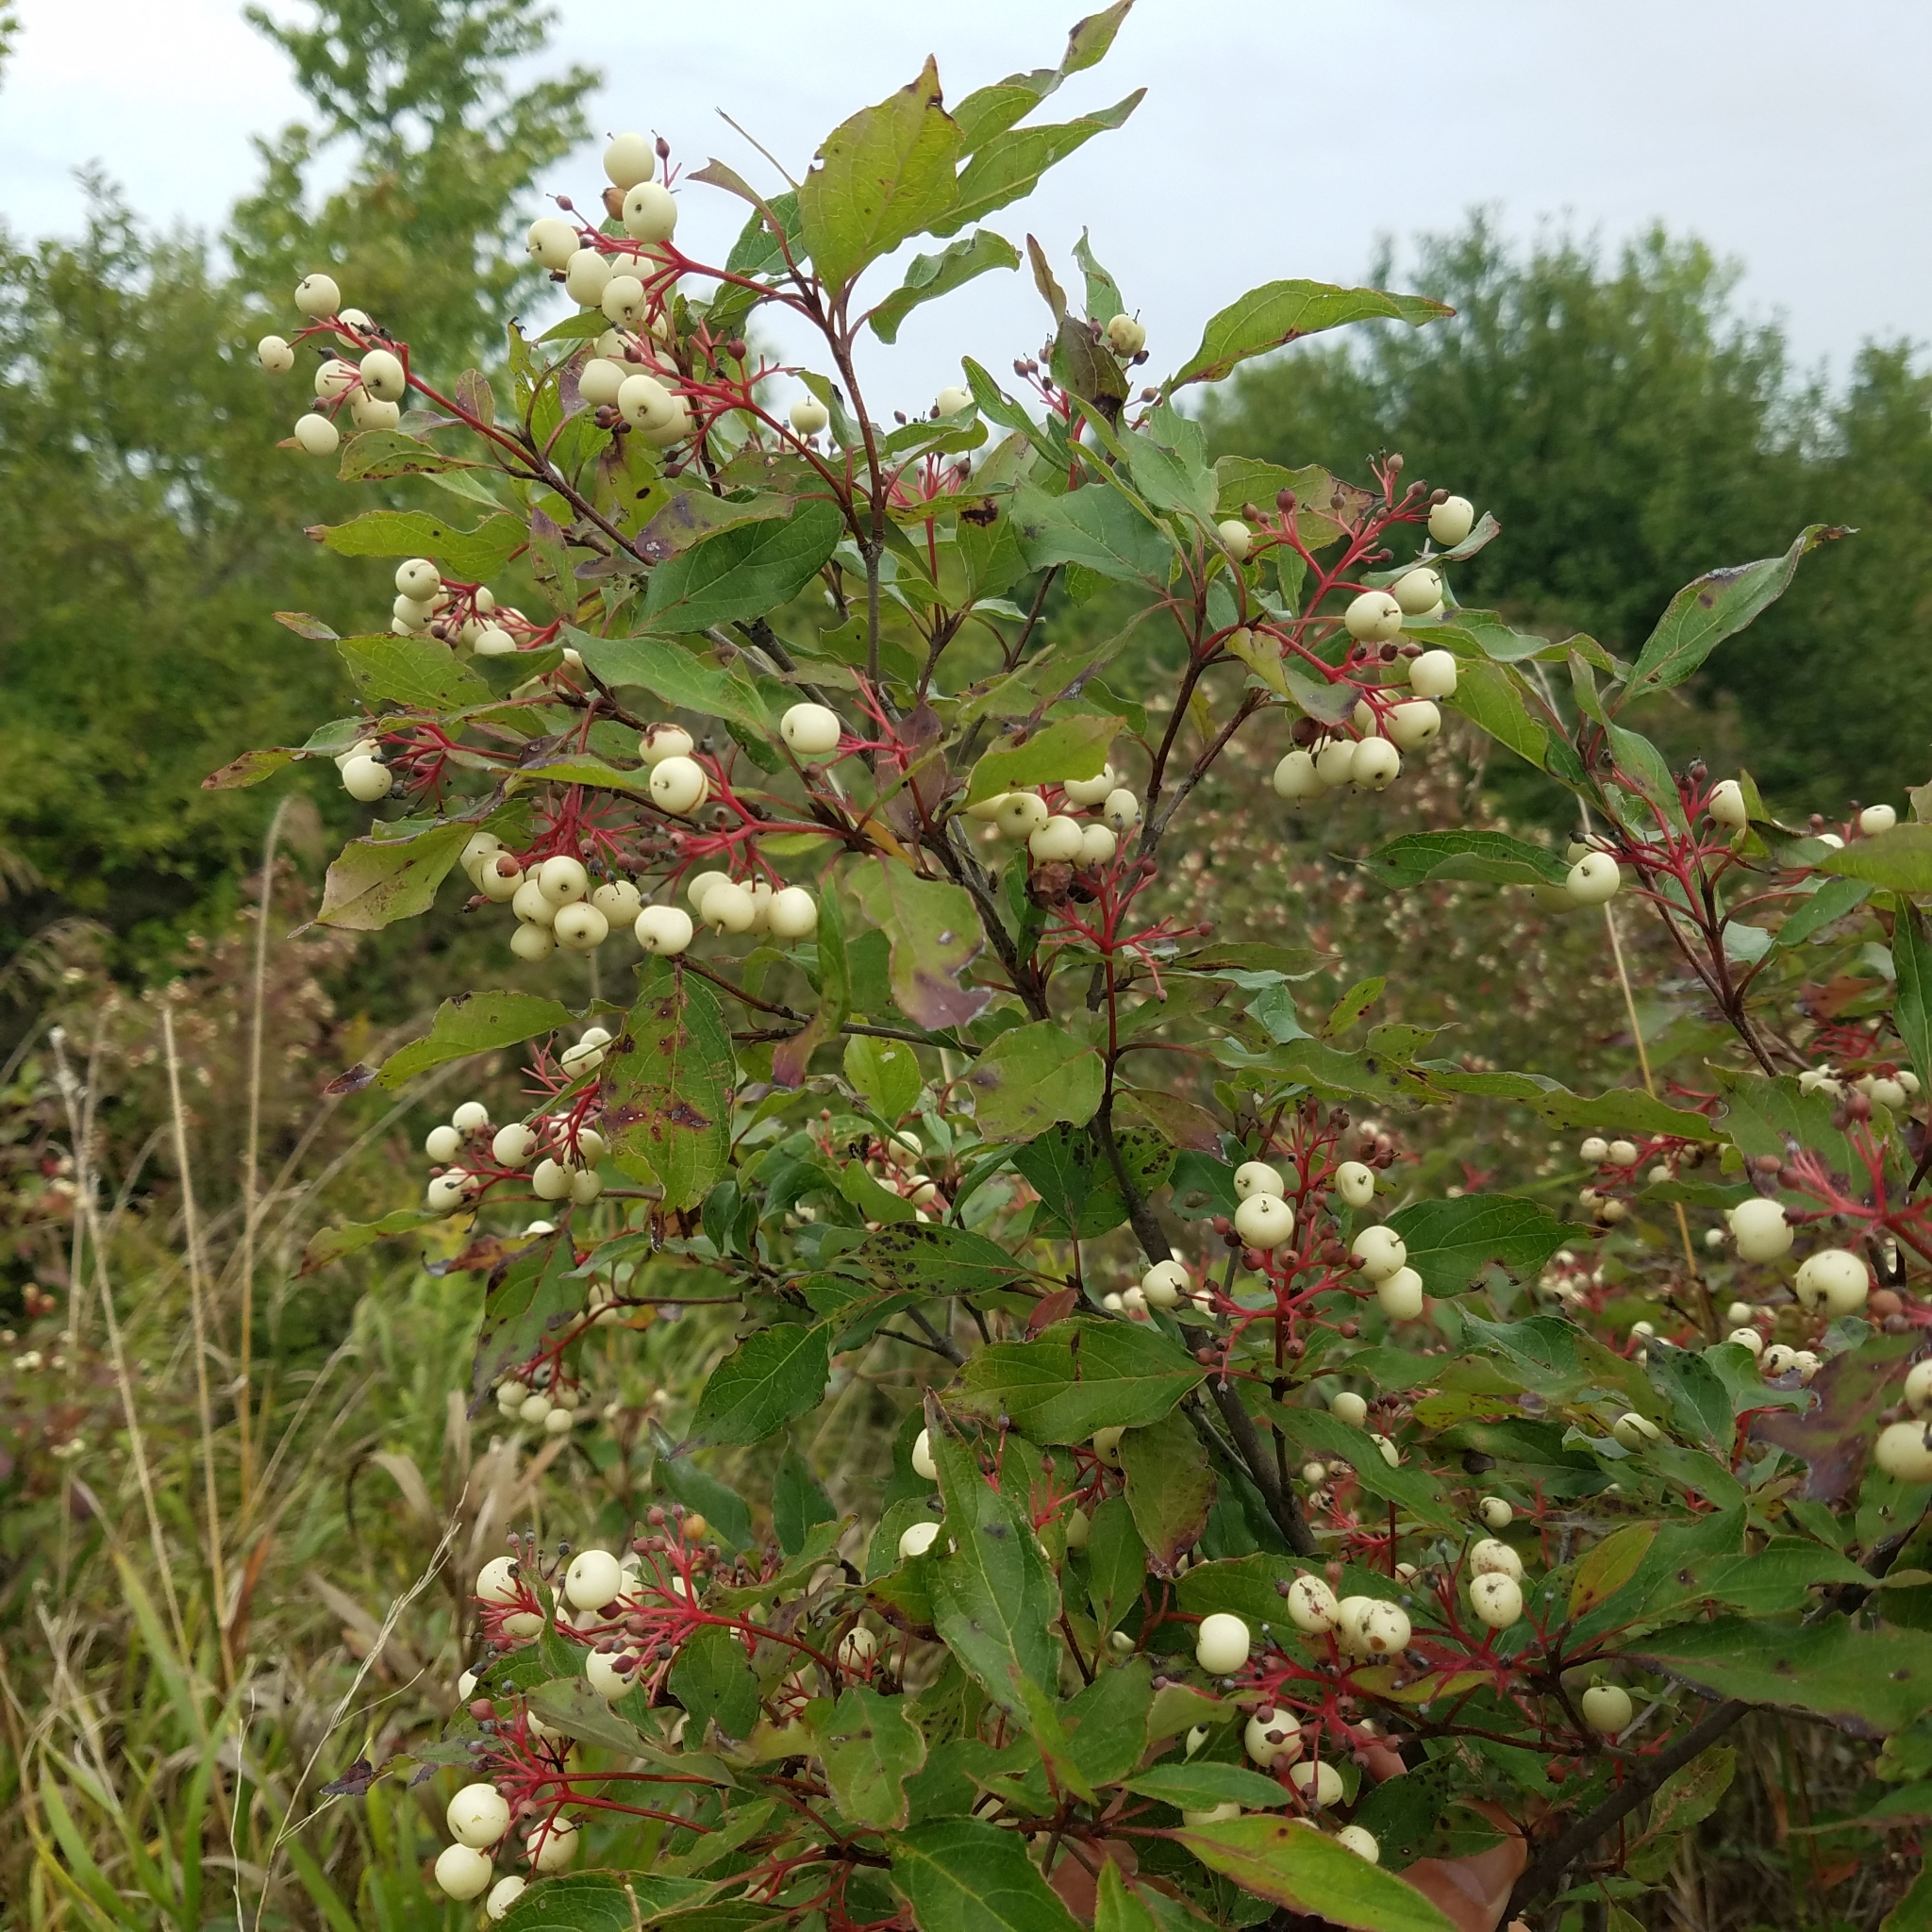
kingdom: Plantae
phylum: Tracheophyta
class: Magnoliopsida
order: Cornales
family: Cornaceae
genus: Cornus
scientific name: Cornus racemosa
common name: Panicled dogwood
